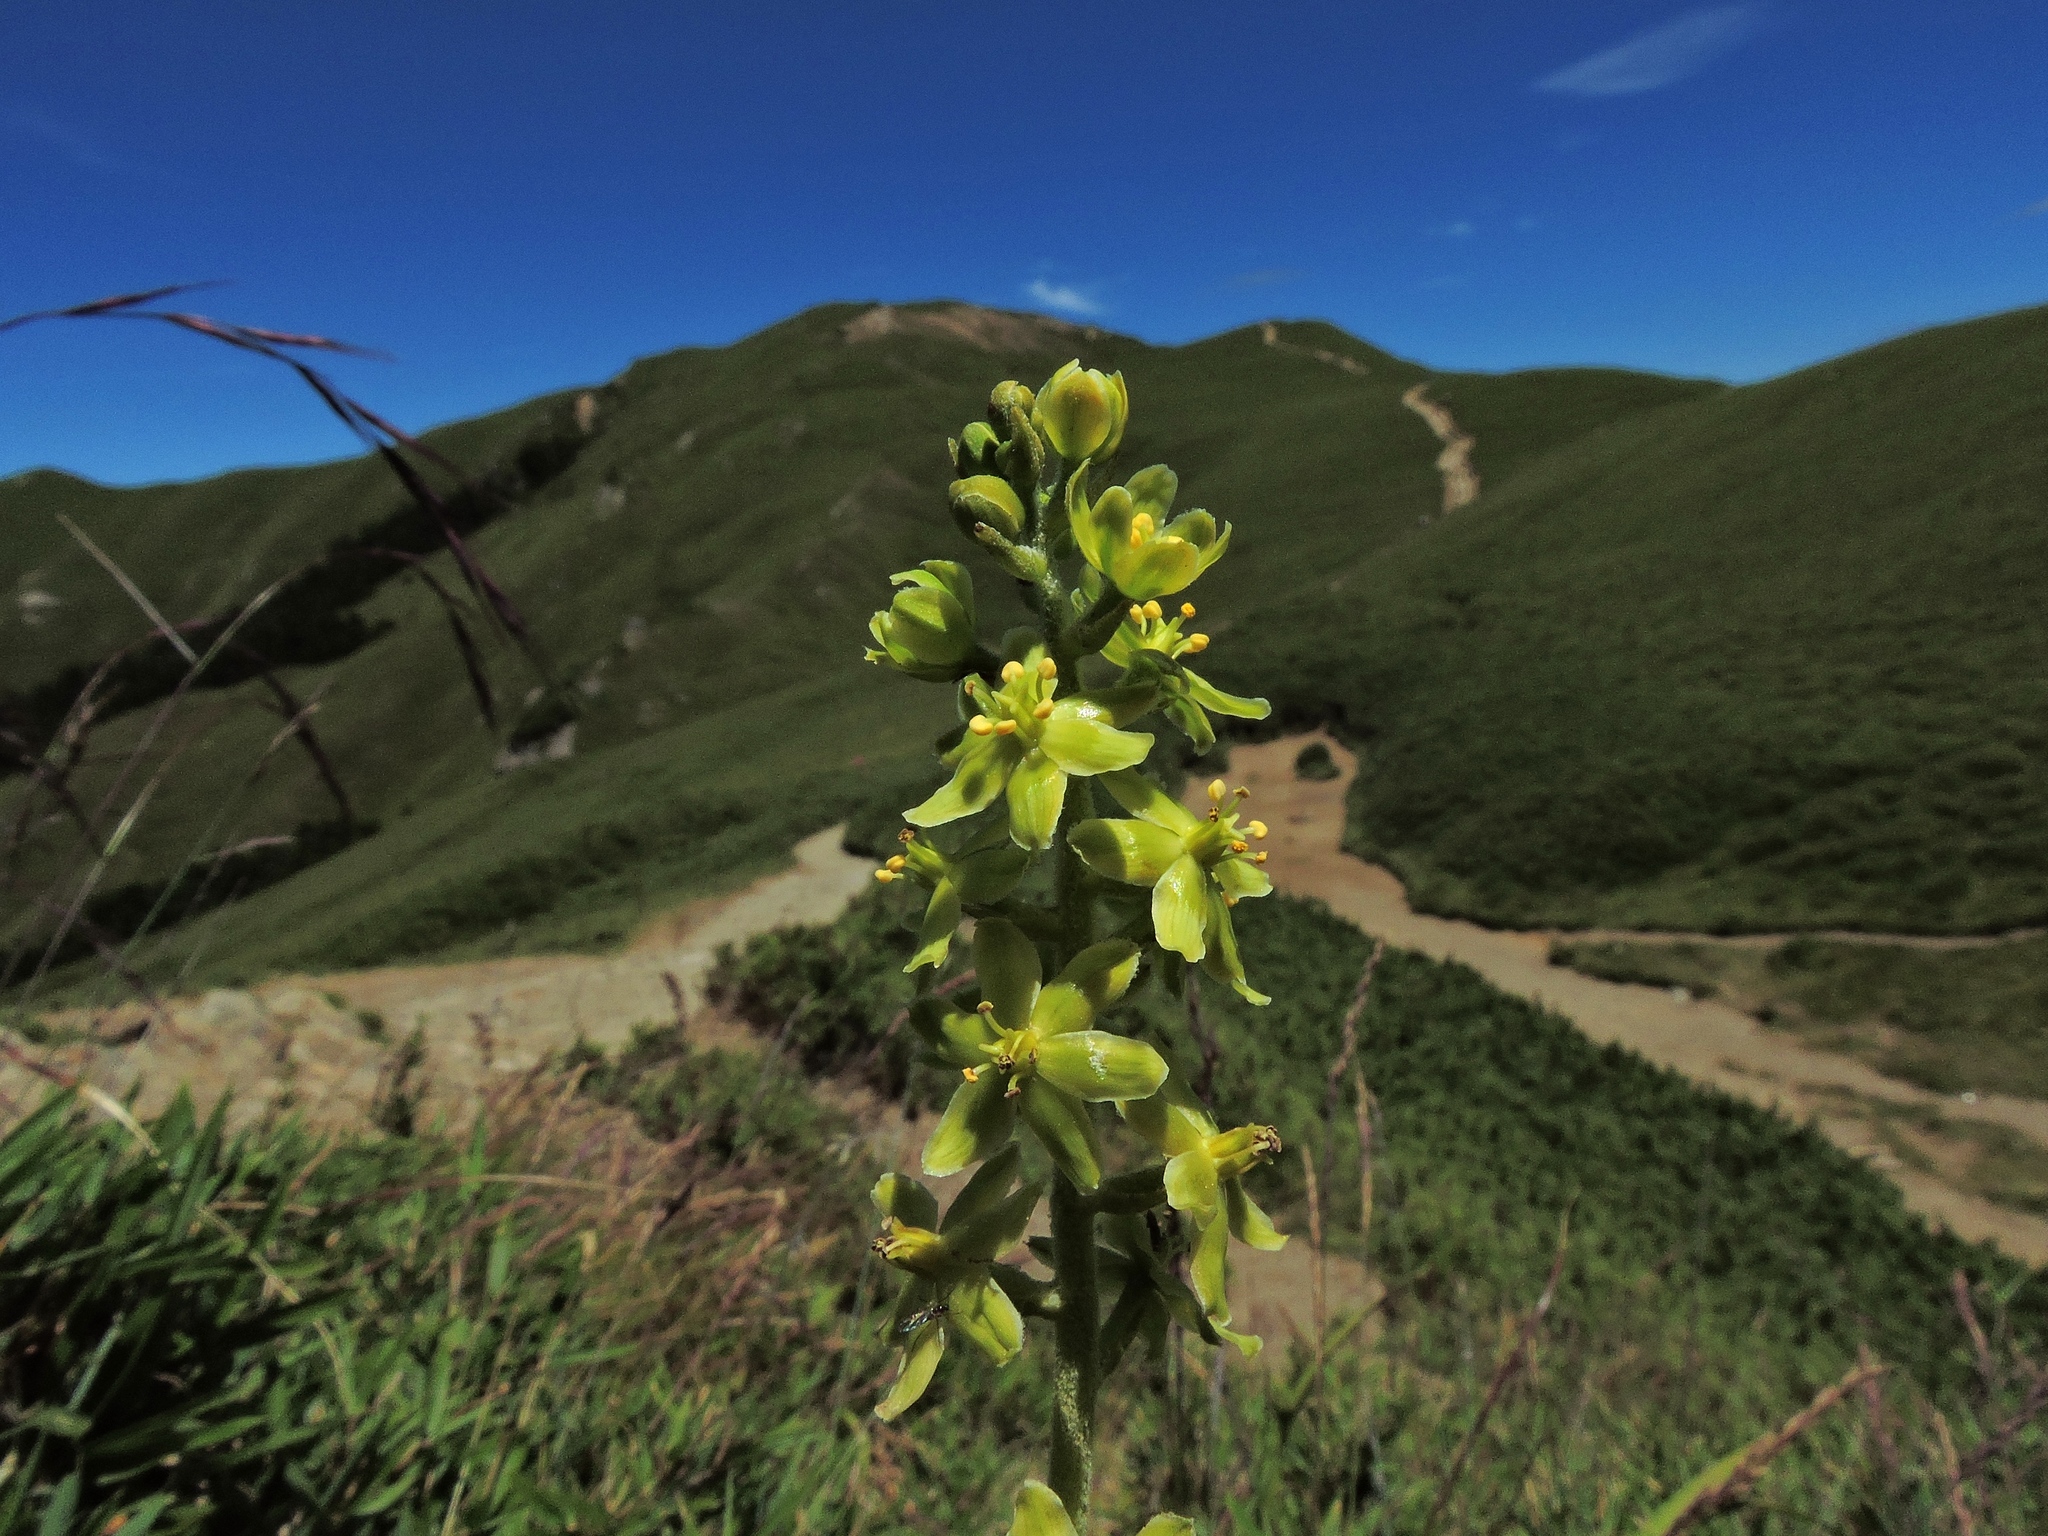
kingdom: Plantae
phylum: Tracheophyta
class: Liliopsida
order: Liliales
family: Melanthiaceae
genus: Veratrum
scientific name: Veratrum formosanum
